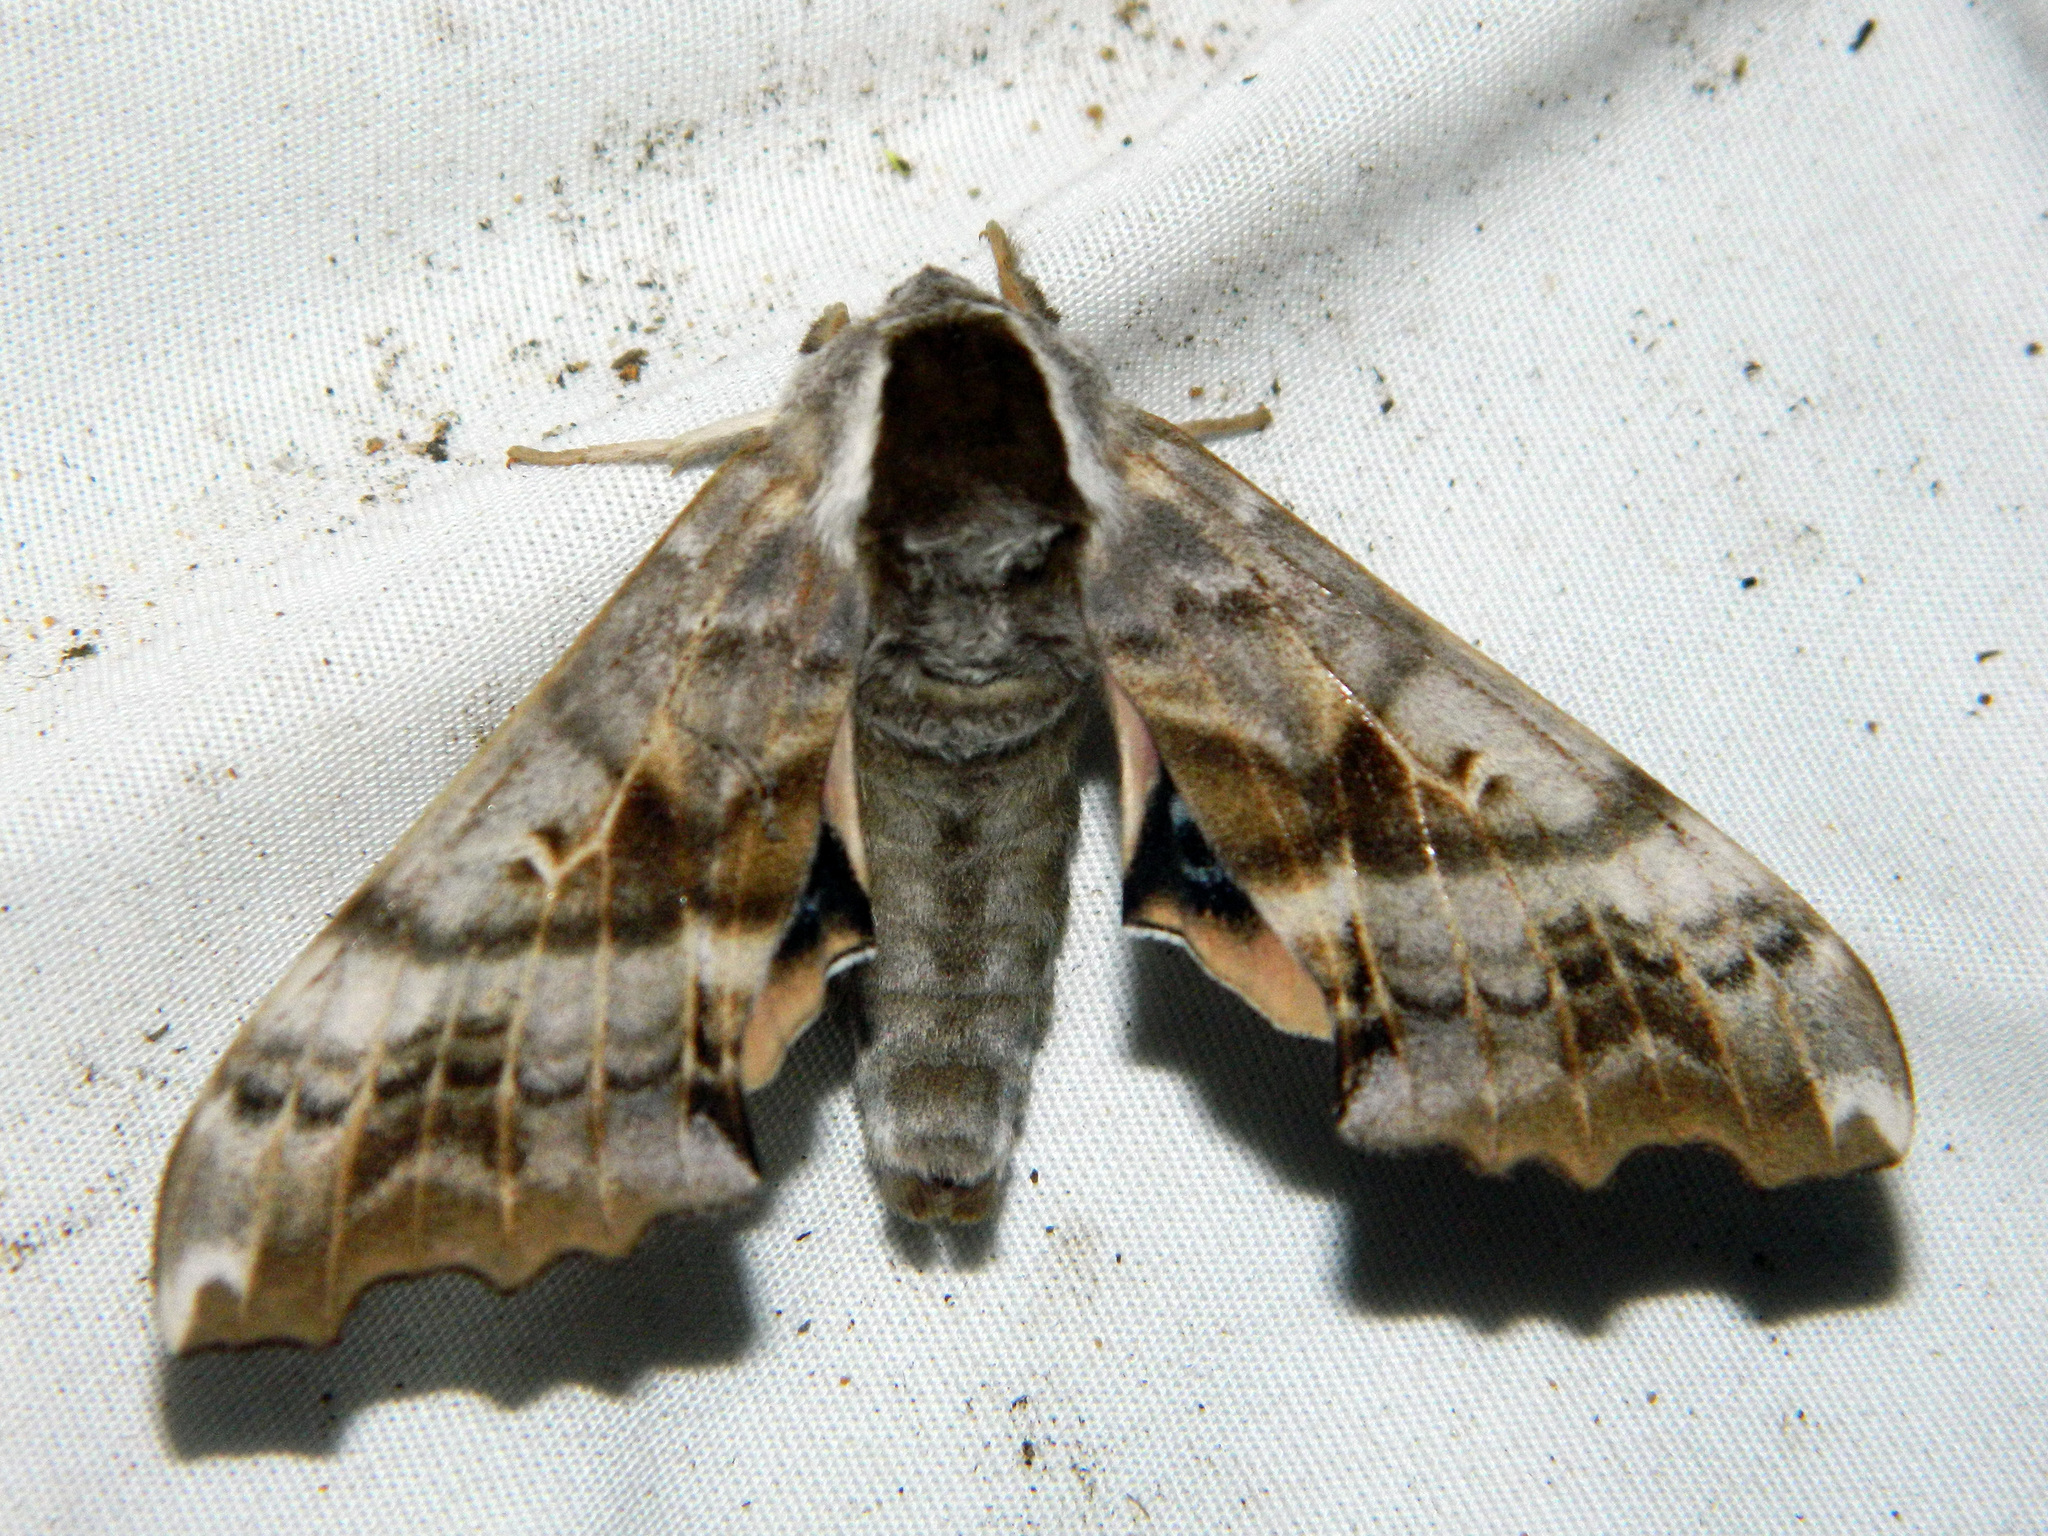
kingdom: Animalia
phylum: Arthropoda
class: Insecta
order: Lepidoptera
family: Sphingidae
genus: Smerinthus
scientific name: Smerinthus cerisyi
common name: Cerisy's sphinx moth
